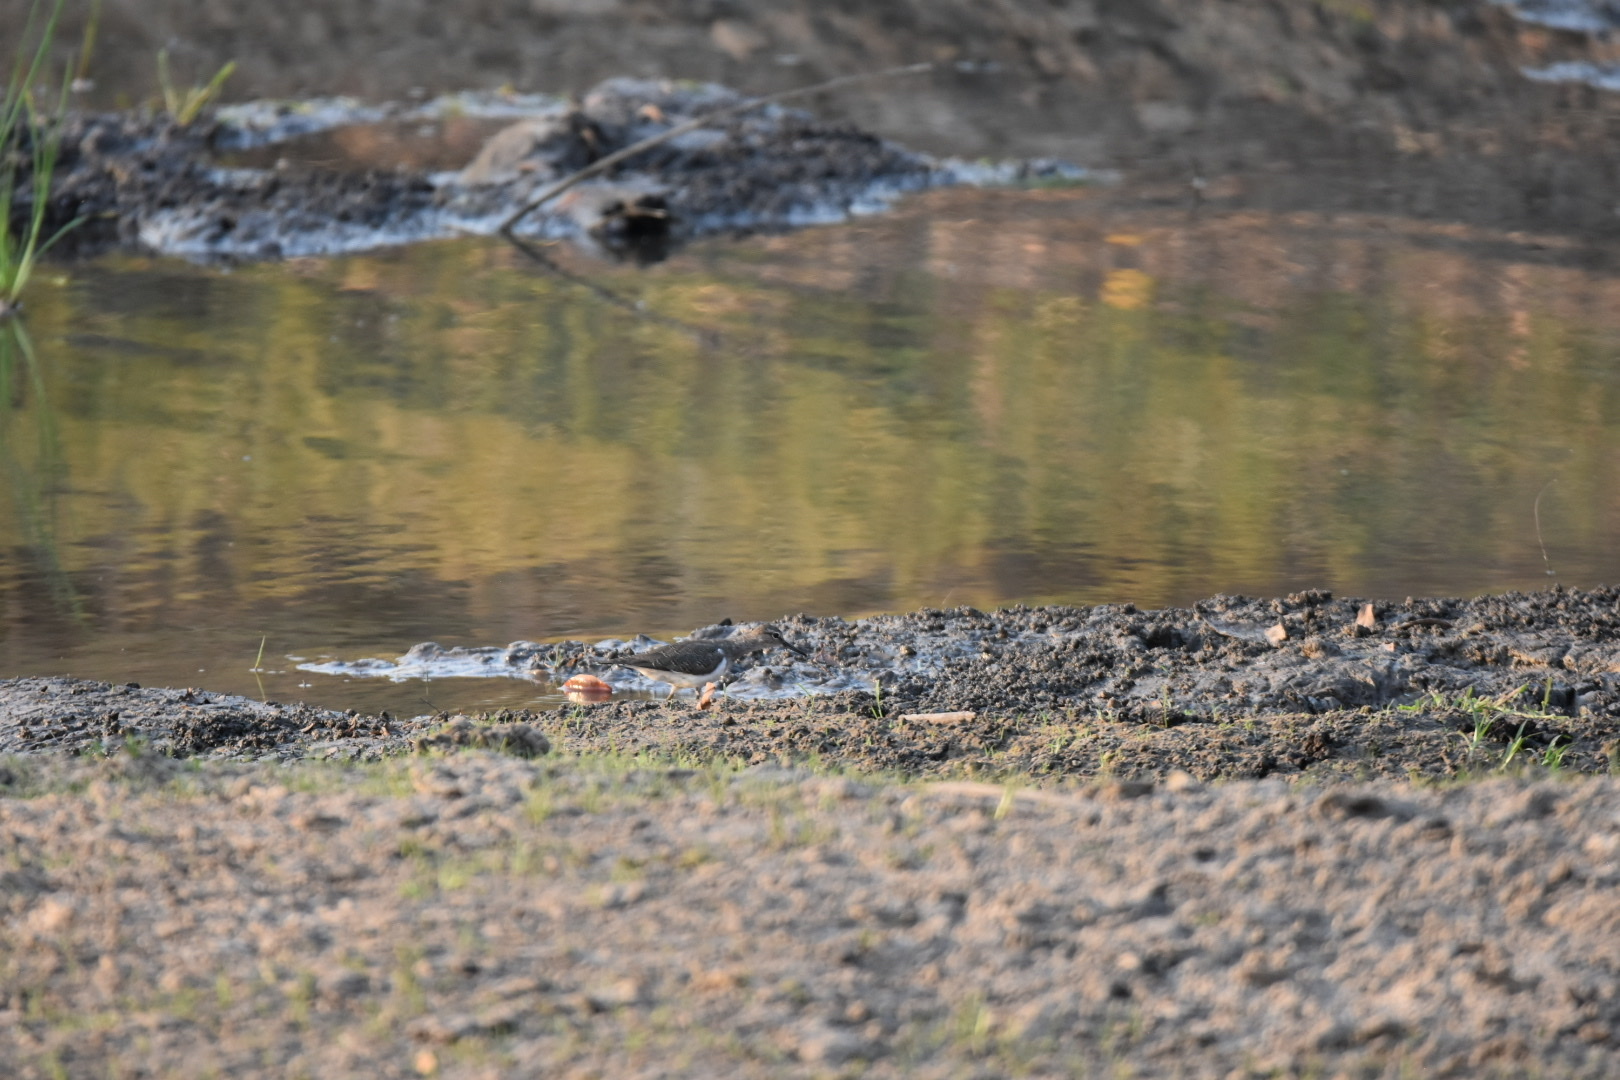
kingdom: Animalia
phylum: Chordata
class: Aves
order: Charadriiformes
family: Scolopacidae
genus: Actitis
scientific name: Actitis hypoleucos
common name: Common sandpiper
